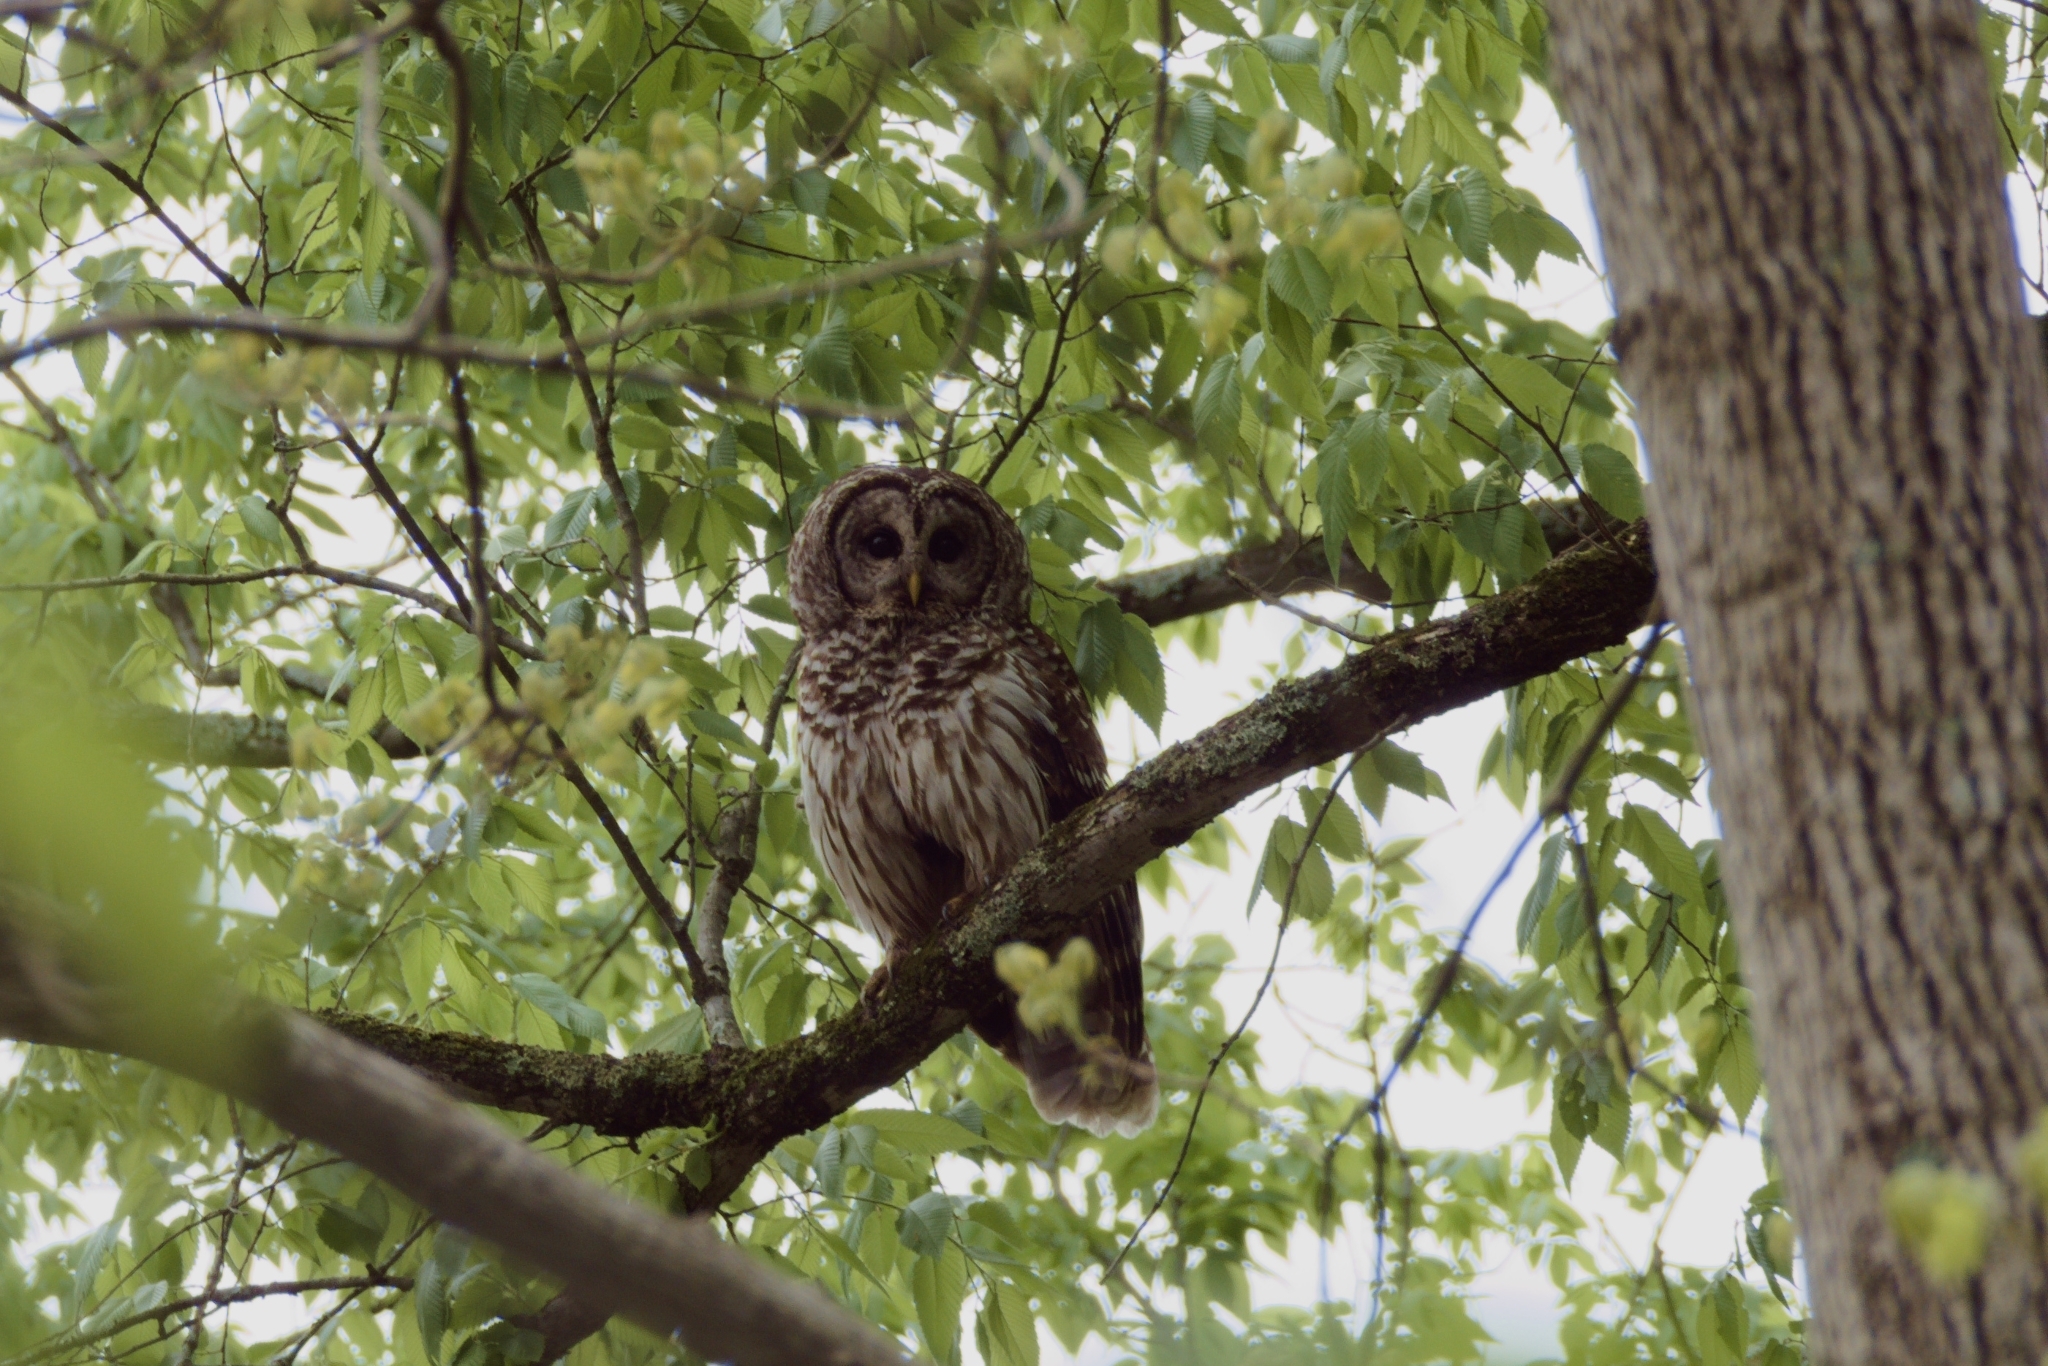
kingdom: Animalia
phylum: Chordata
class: Aves
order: Strigiformes
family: Strigidae
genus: Strix
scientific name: Strix varia
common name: Barred owl
